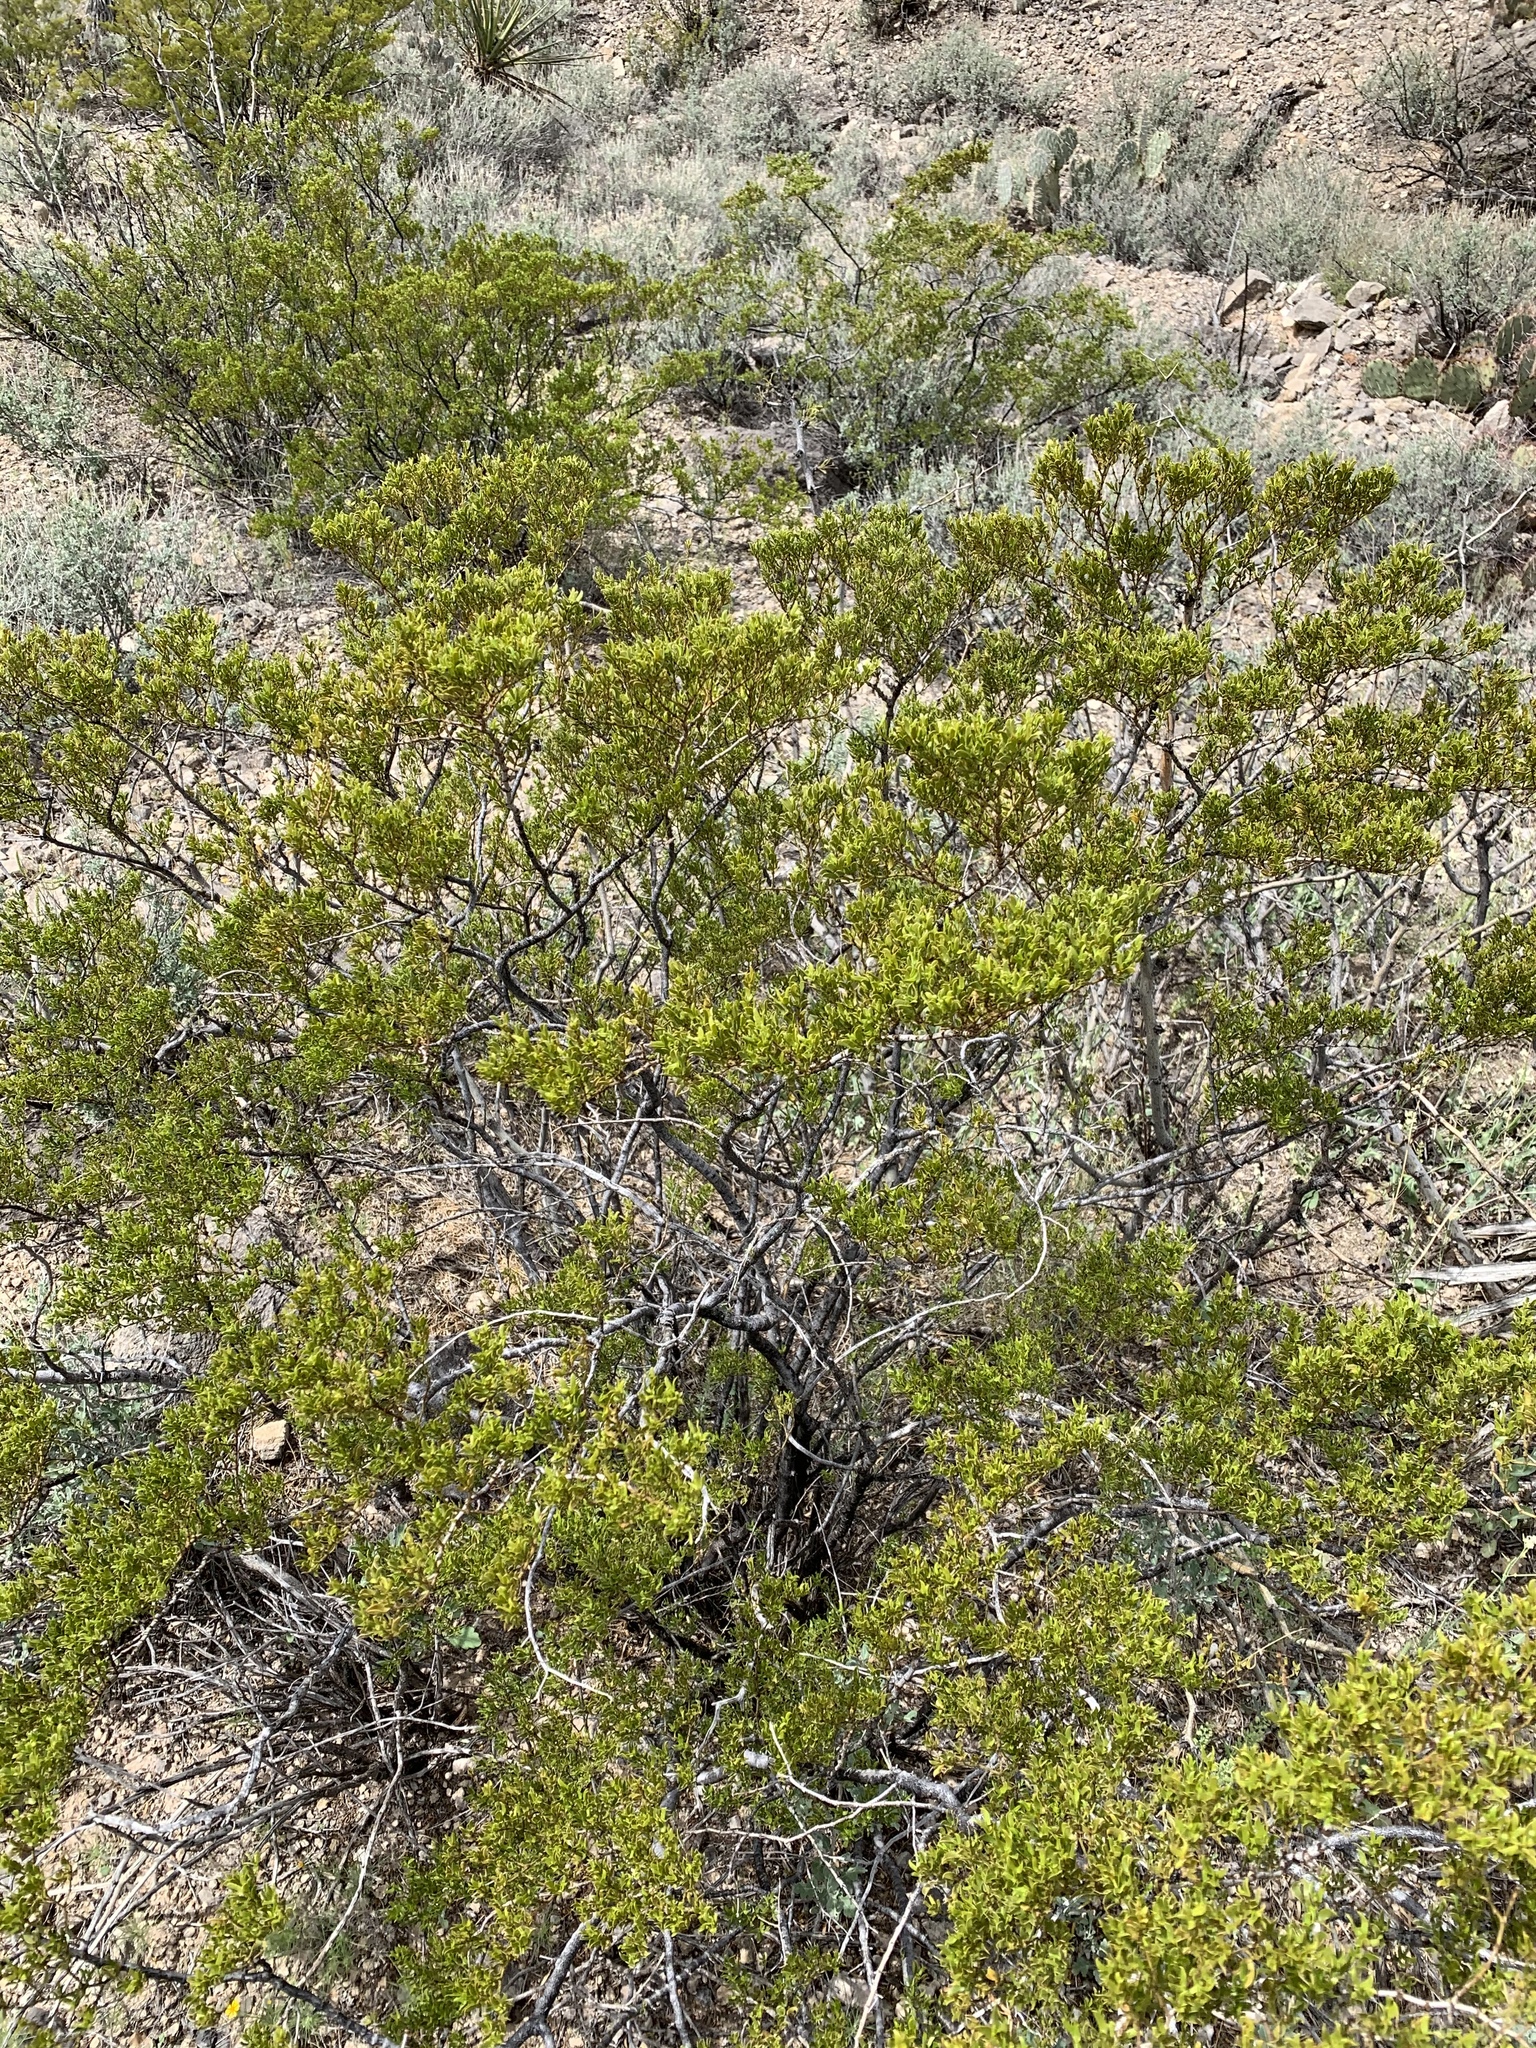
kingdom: Plantae
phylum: Tracheophyta
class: Magnoliopsida
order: Zygophyllales
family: Zygophyllaceae
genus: Larrea
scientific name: Larrea tridentata
